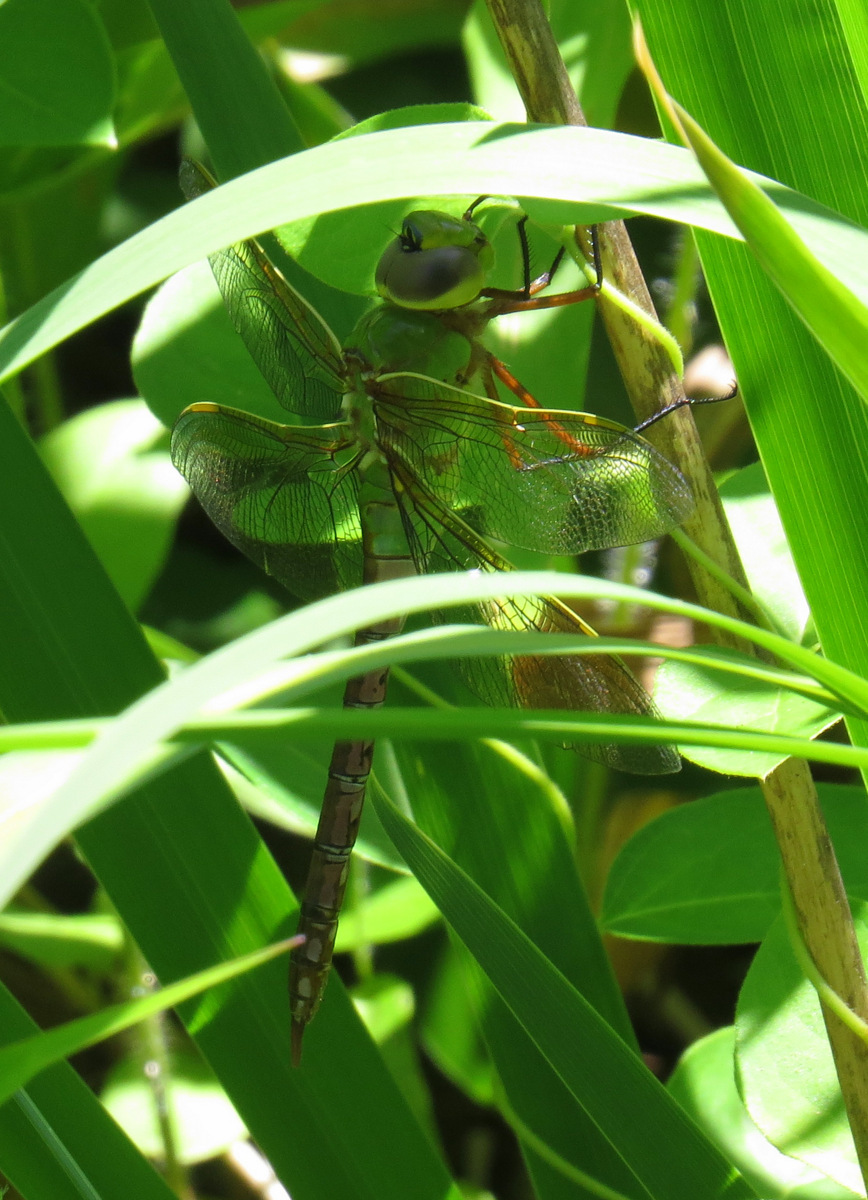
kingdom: Animalia
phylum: Arthropoda
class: Insecta
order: Odonata
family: Aeshnidae
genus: Anax
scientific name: Anax junius
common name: Common green darner
